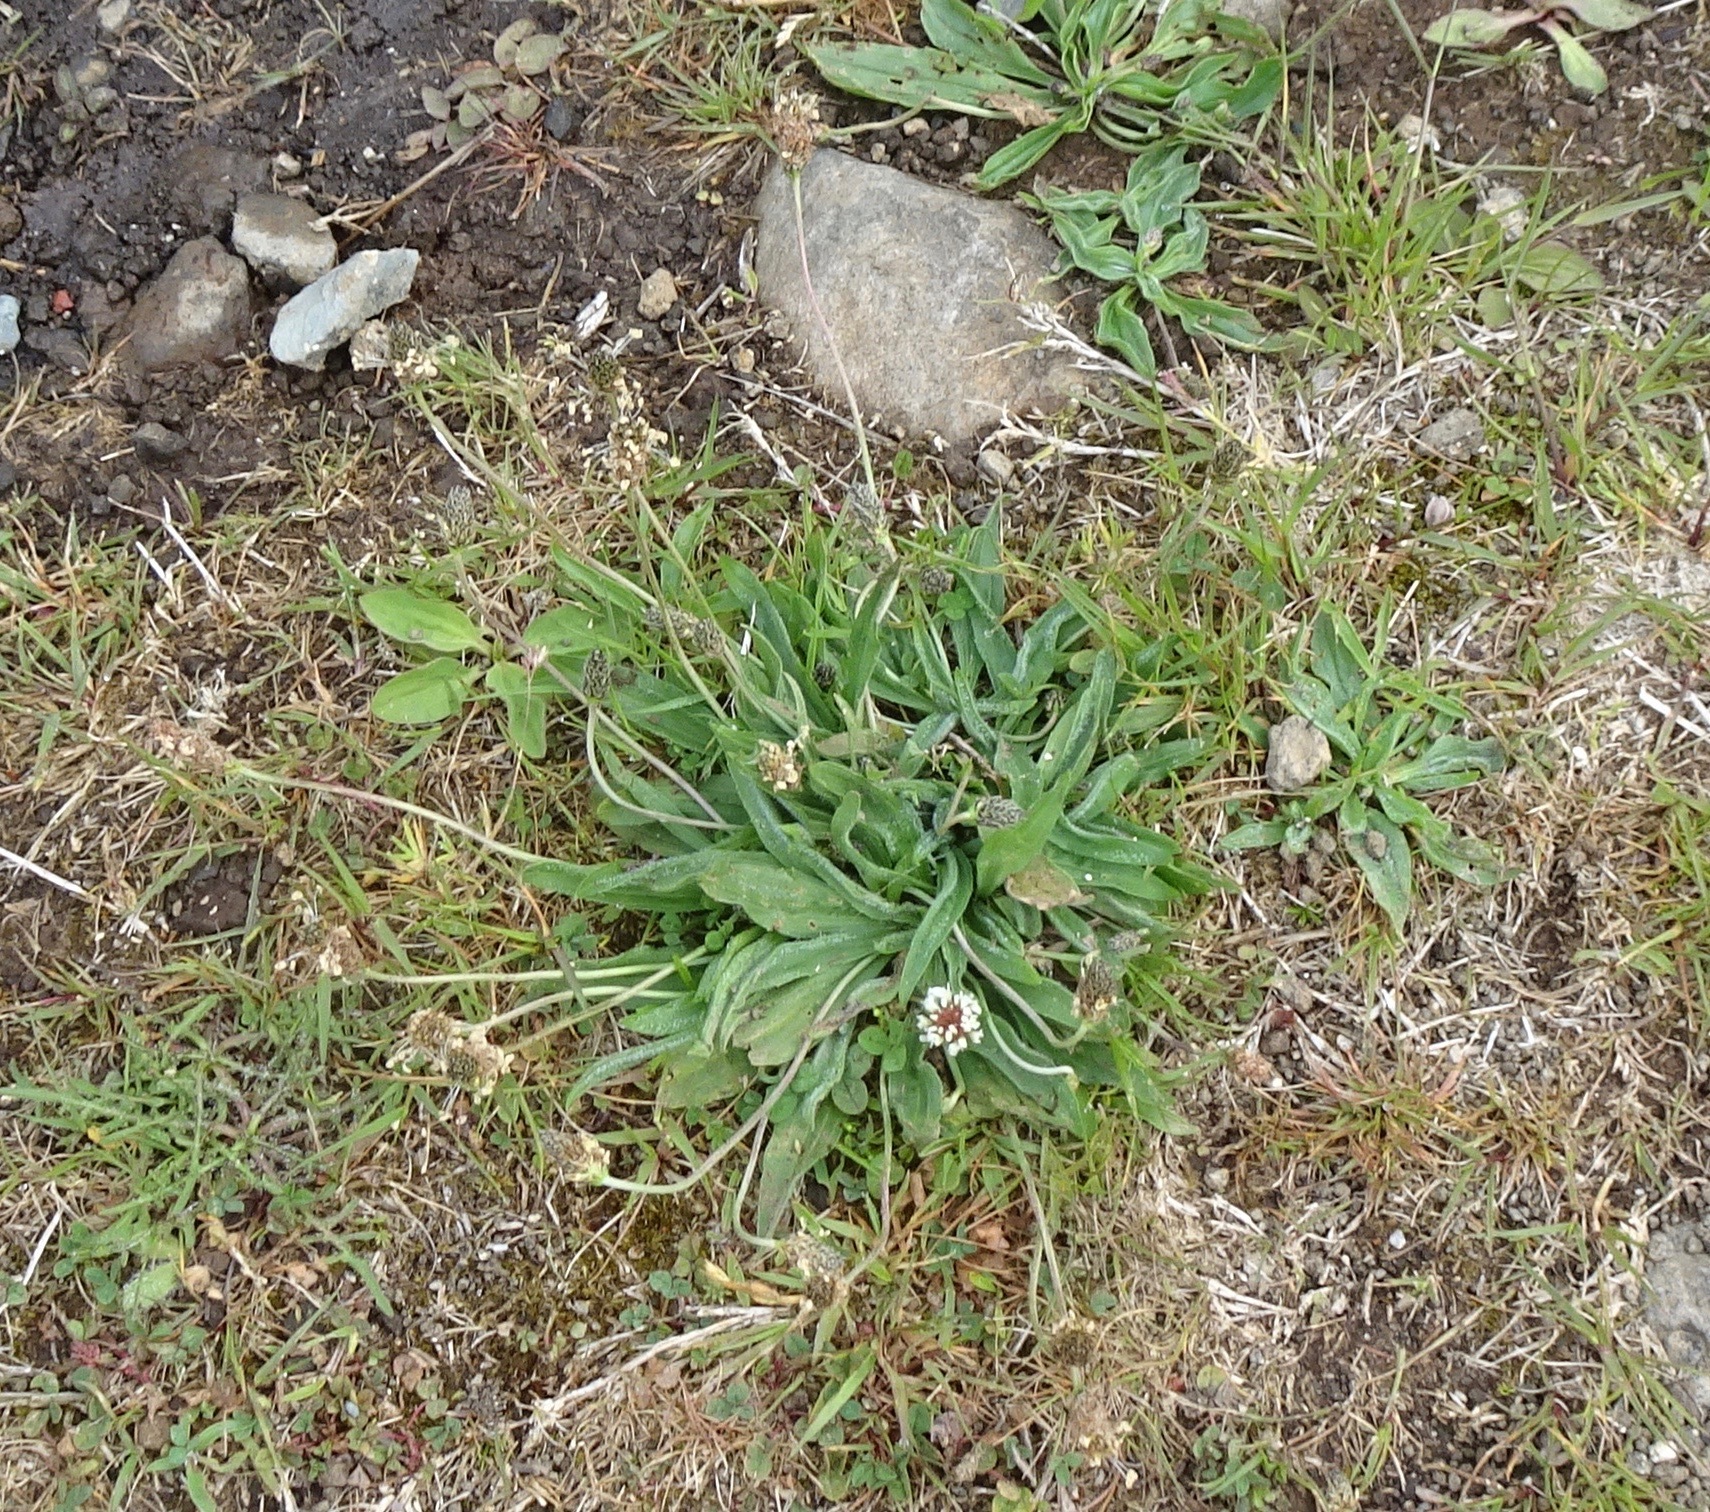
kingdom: Plantae
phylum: Tracheophyta
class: Magnoliopsida
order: Lamiales
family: Plantaginaceae
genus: Plantago
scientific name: Plantago lanceolata
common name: Ribwort plantain
